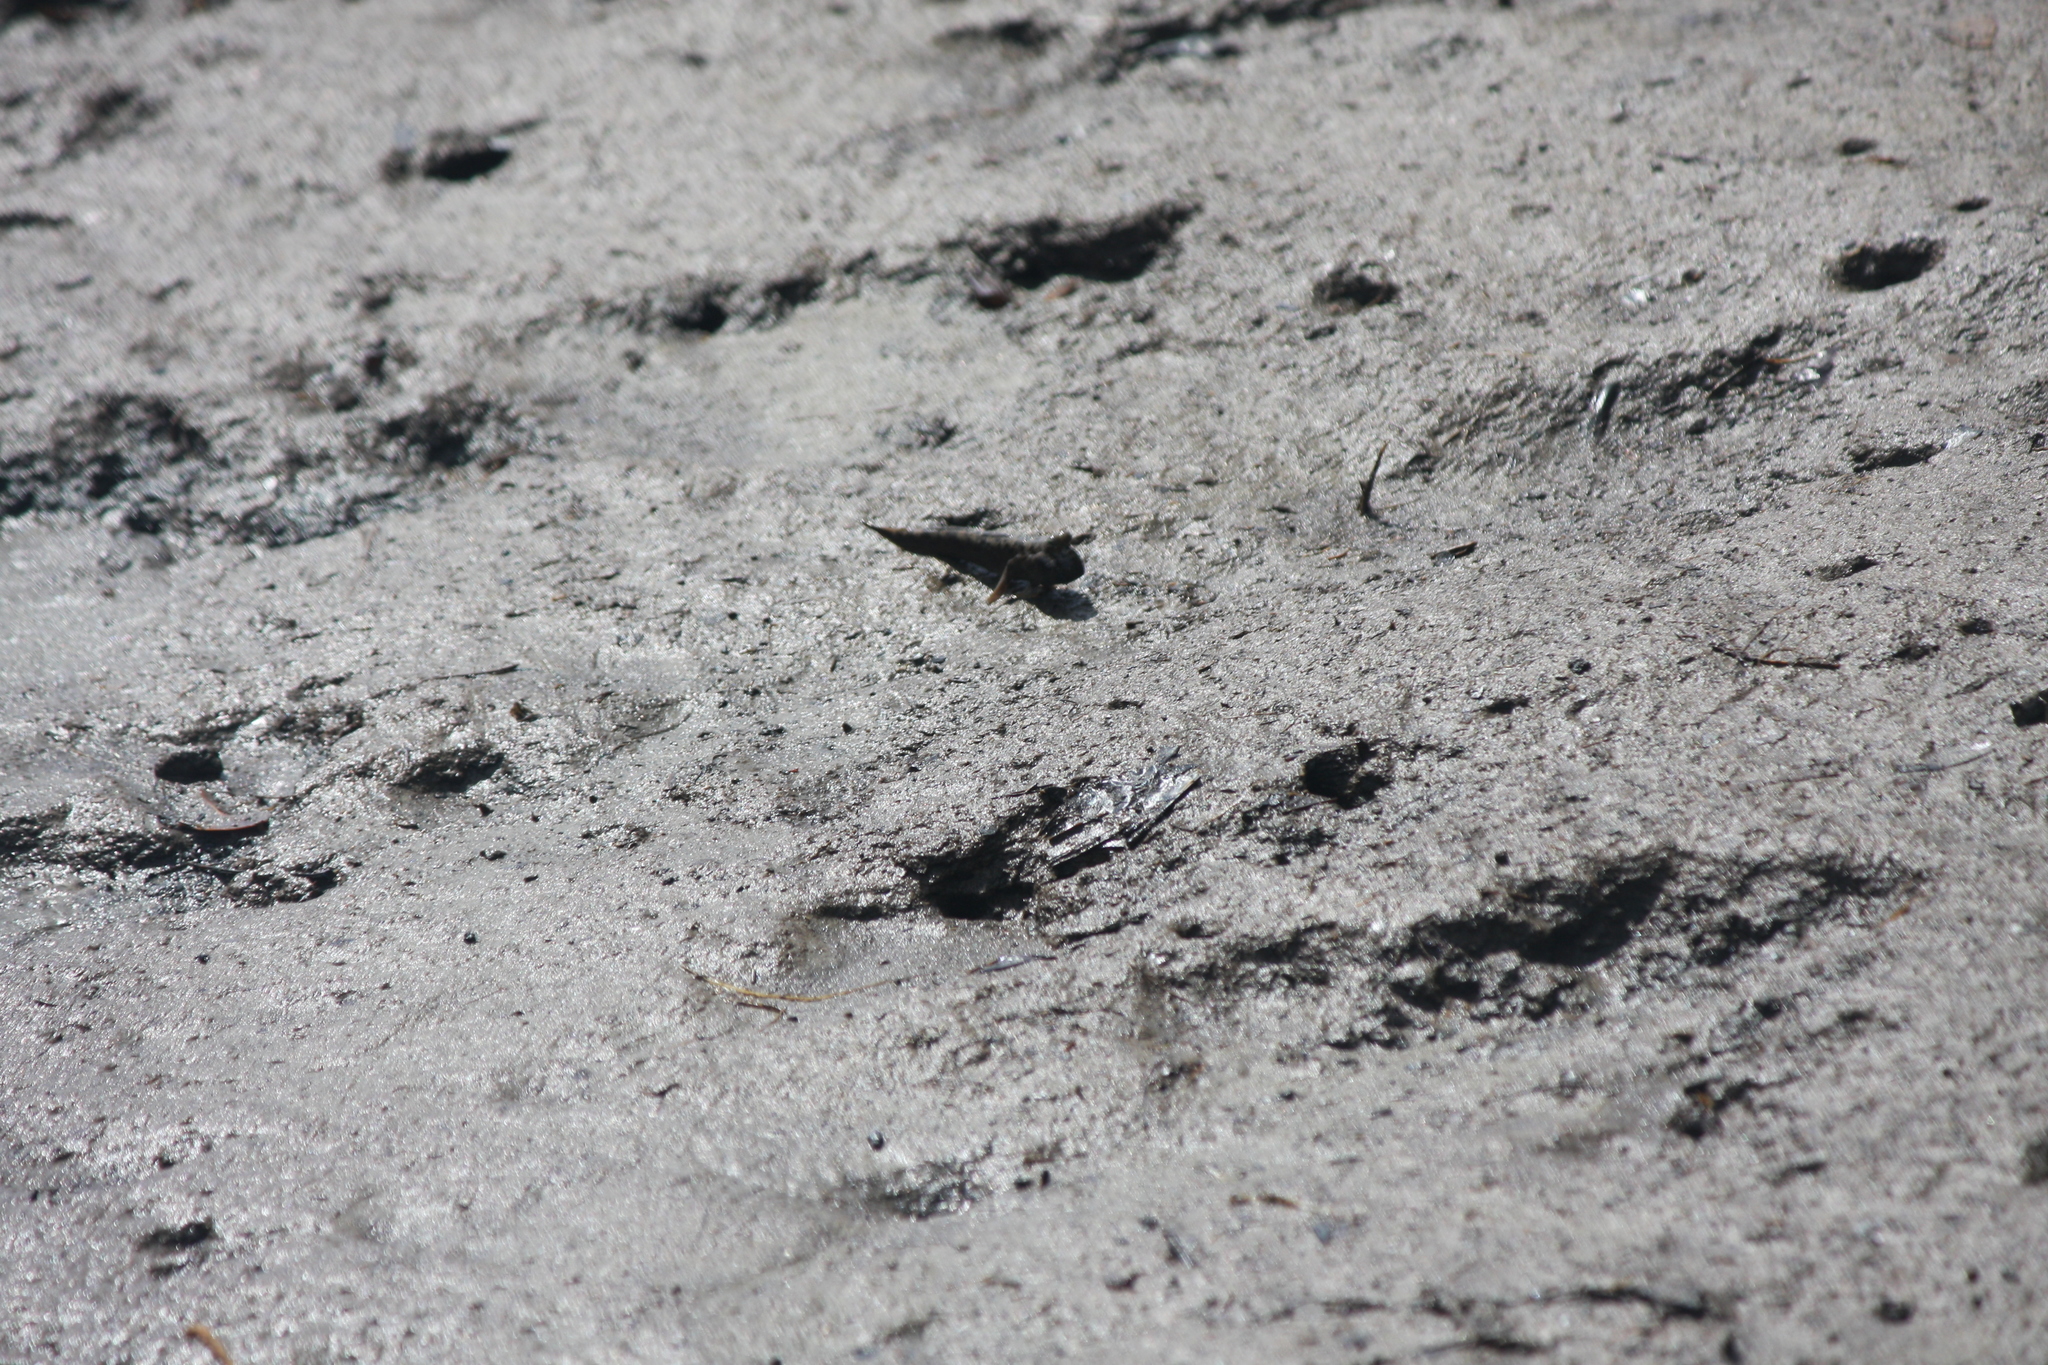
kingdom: Animalia
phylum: Chordata
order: Perciformes
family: Gobiidae
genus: Periophthalmus
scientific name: Periophthalmus argentilineatus
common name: Barred mudskipper
